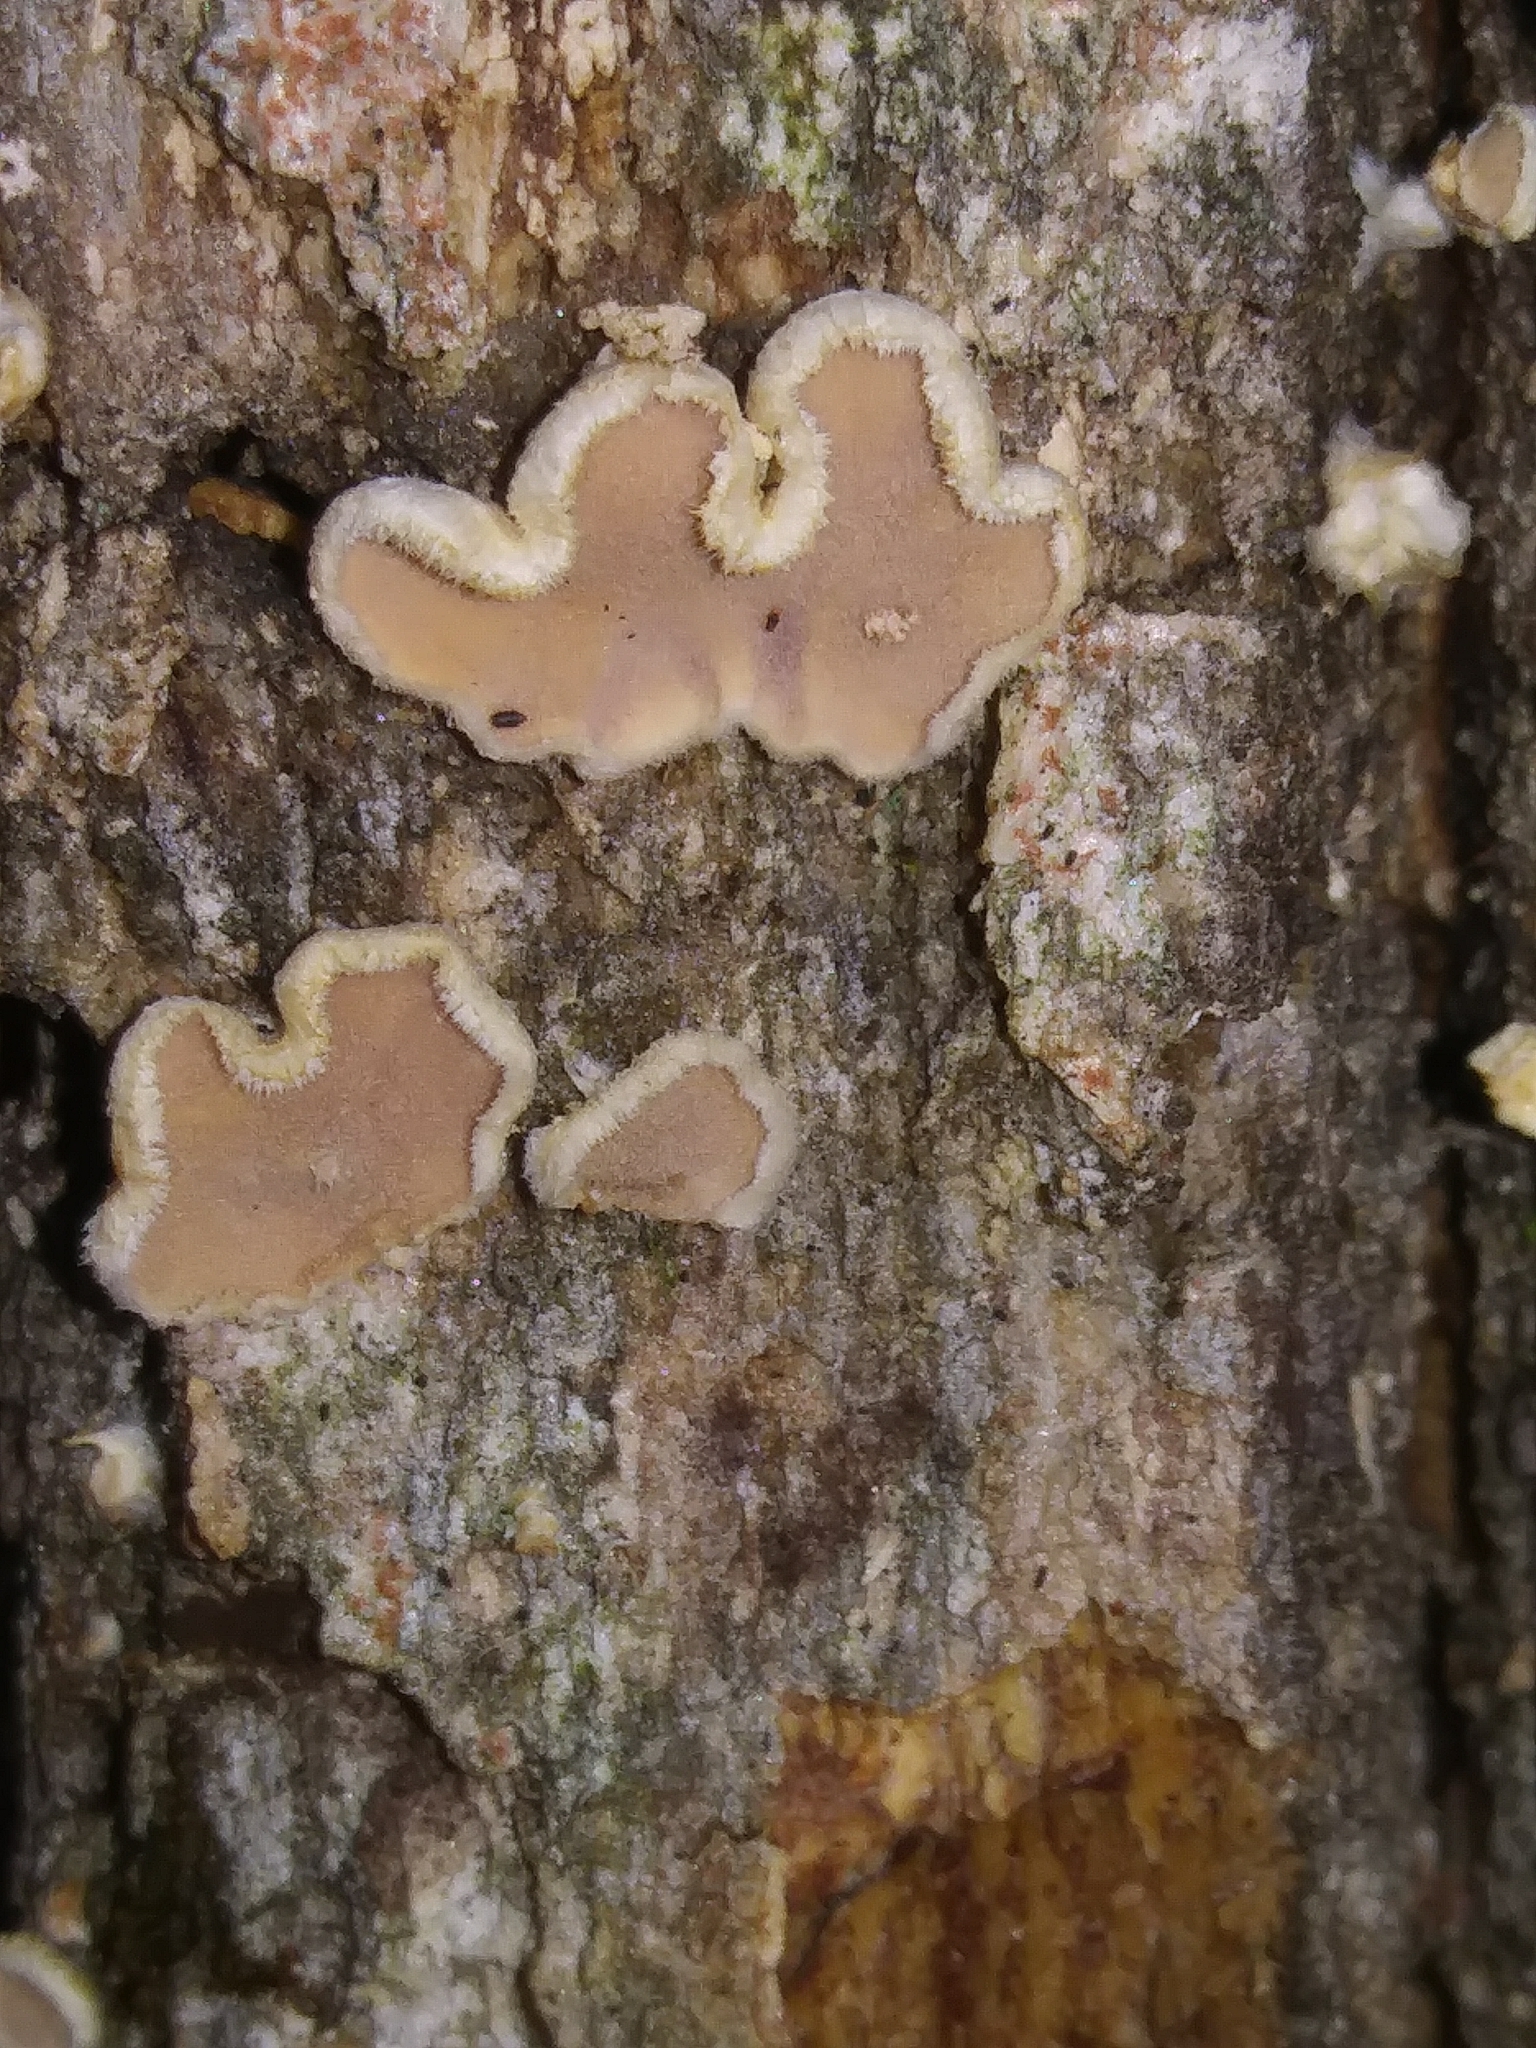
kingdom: Fungi
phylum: Basidiomycota
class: Agaricomycetes
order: Russulales
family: Stereaceae
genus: Acanthophysium
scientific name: Acanthophysium oakesii
